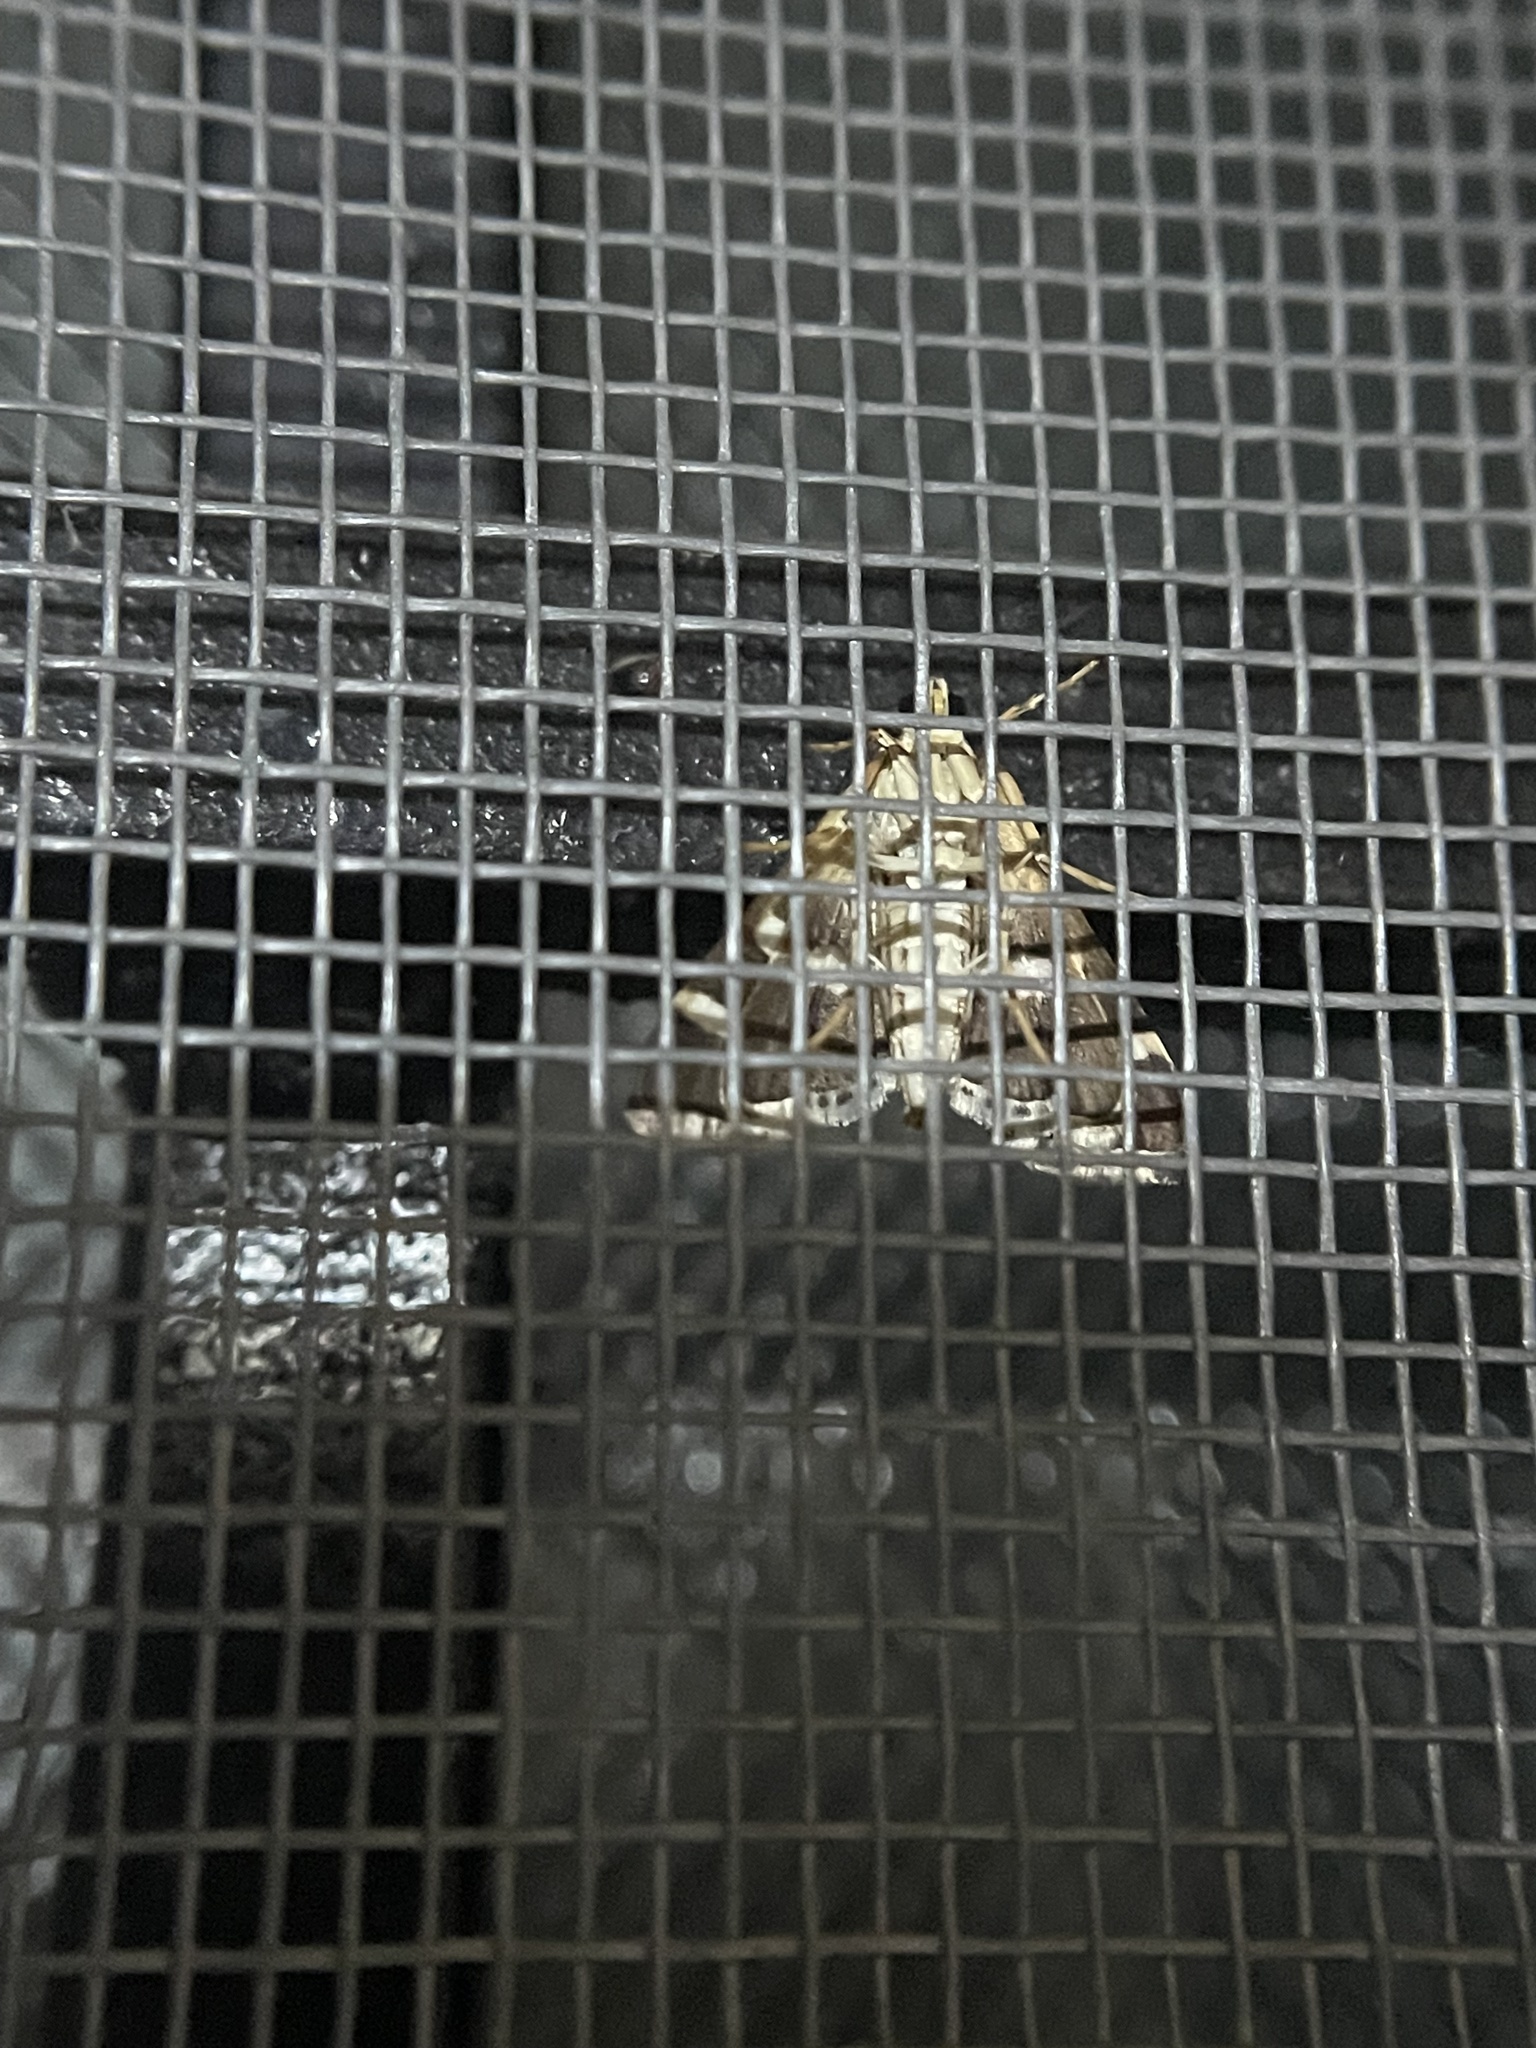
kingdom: Animalia
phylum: Arthropoda
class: Insecta
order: Lepidoptera
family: Crambidae
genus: Spoladea
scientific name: Spoladea recurvalis
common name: Beet webworm moth
